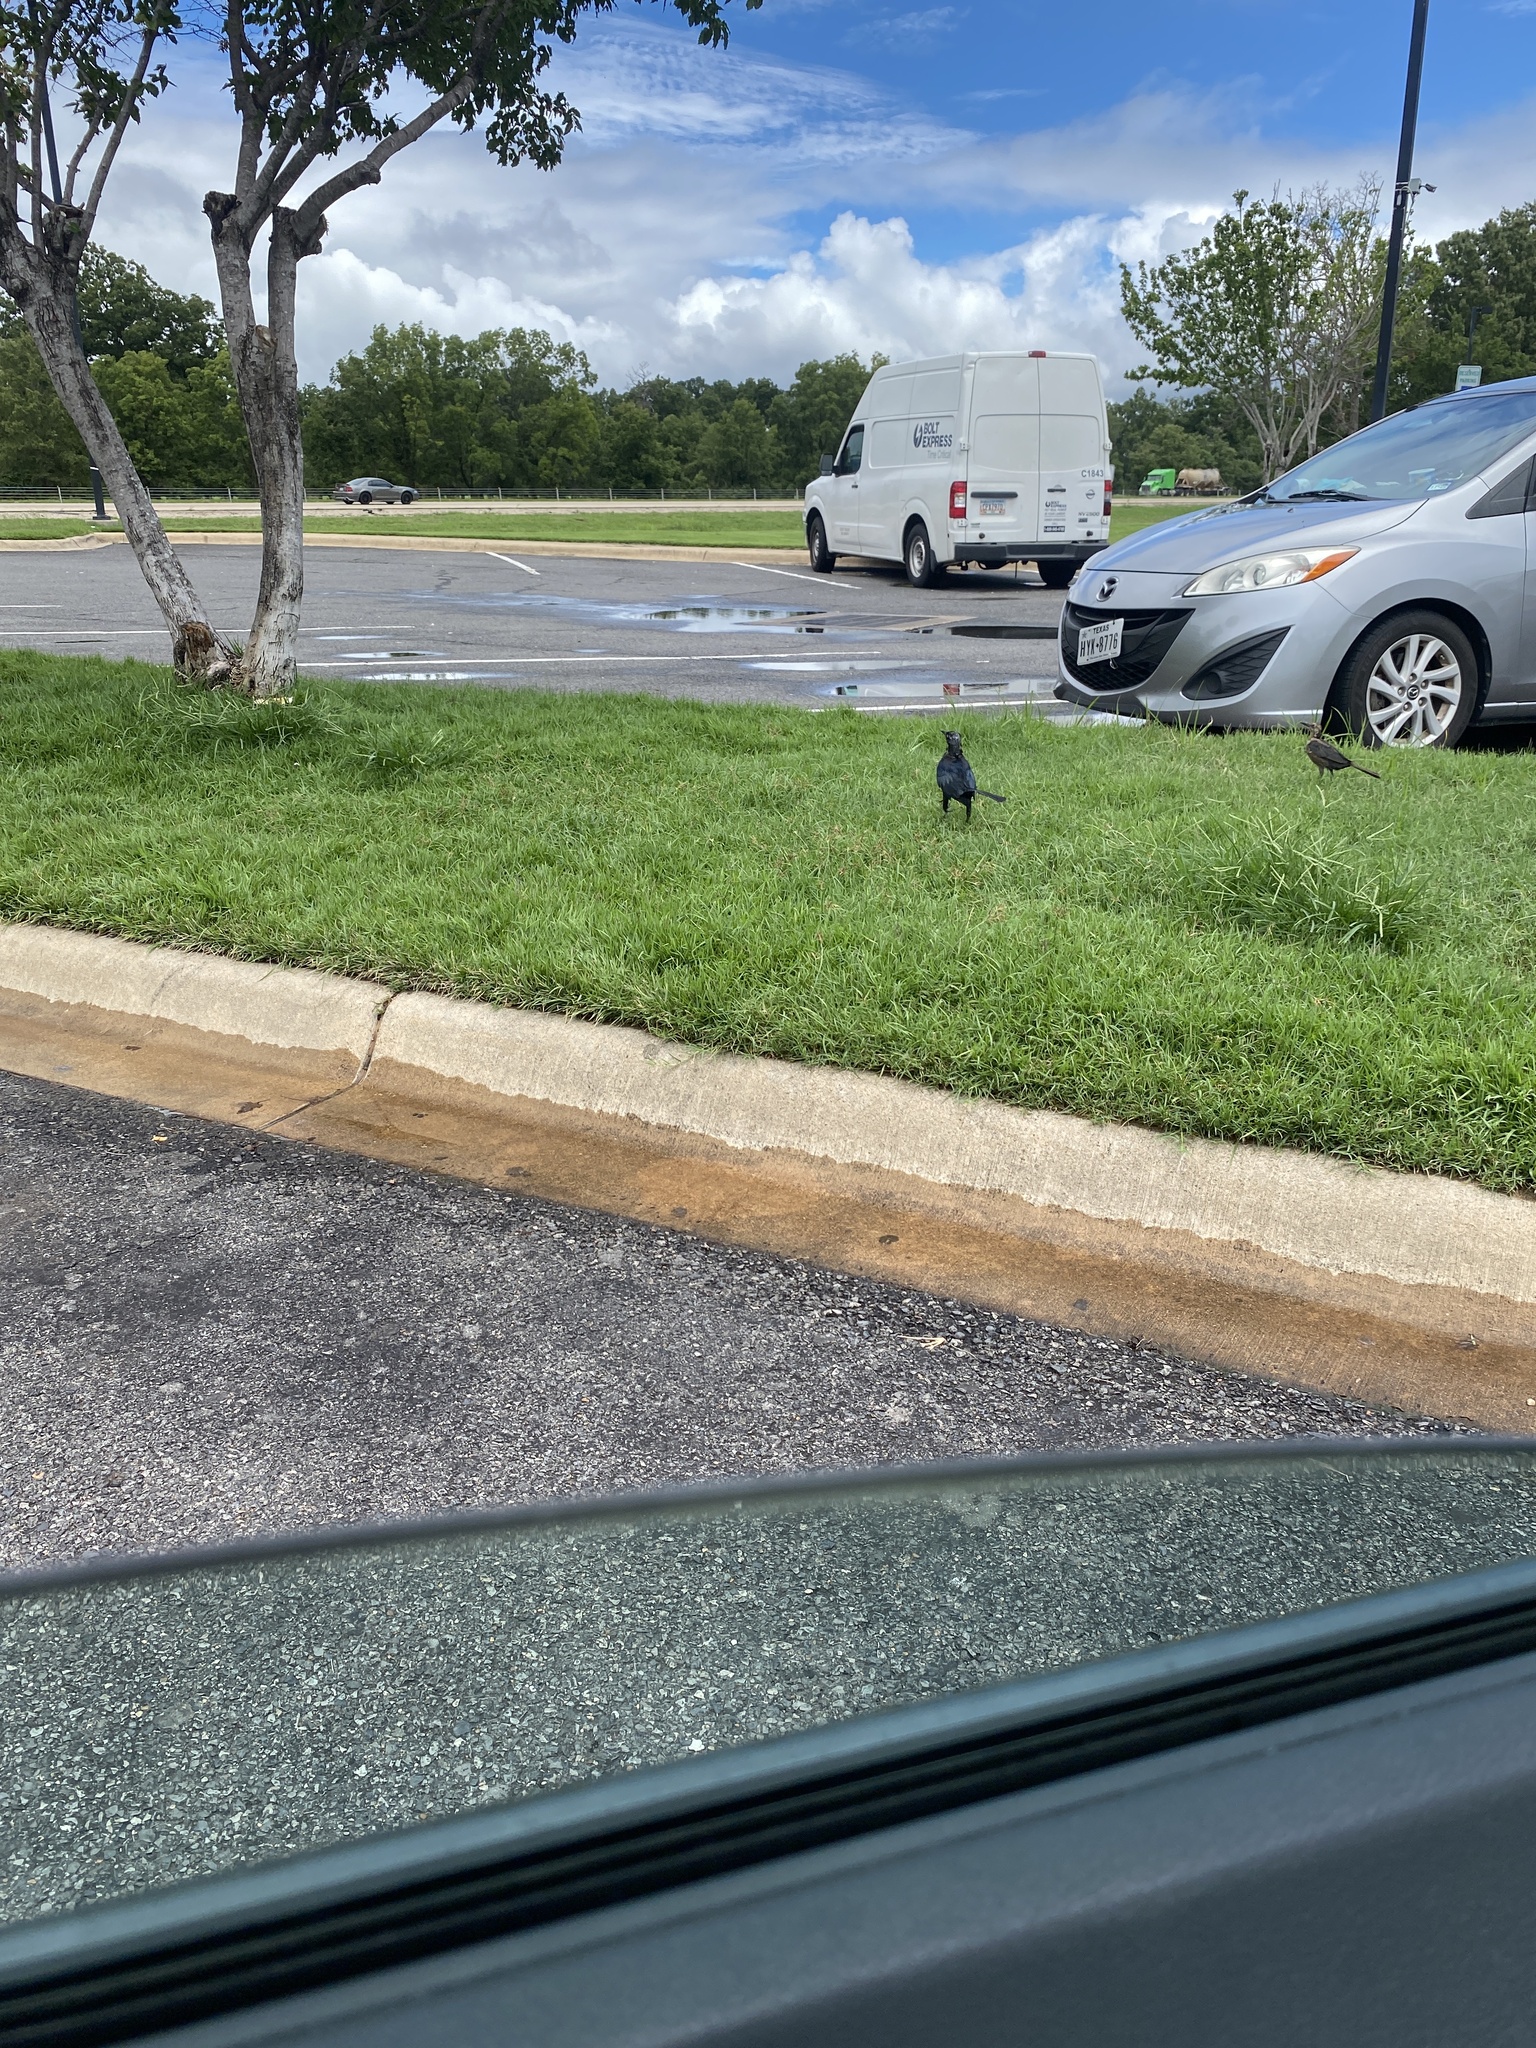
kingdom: Animalia
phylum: Chordata
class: Aves
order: Passeriformes
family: Icteridae
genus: Quiscalus
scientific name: Quiscalus mexicanus
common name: Great-tailed grackle
